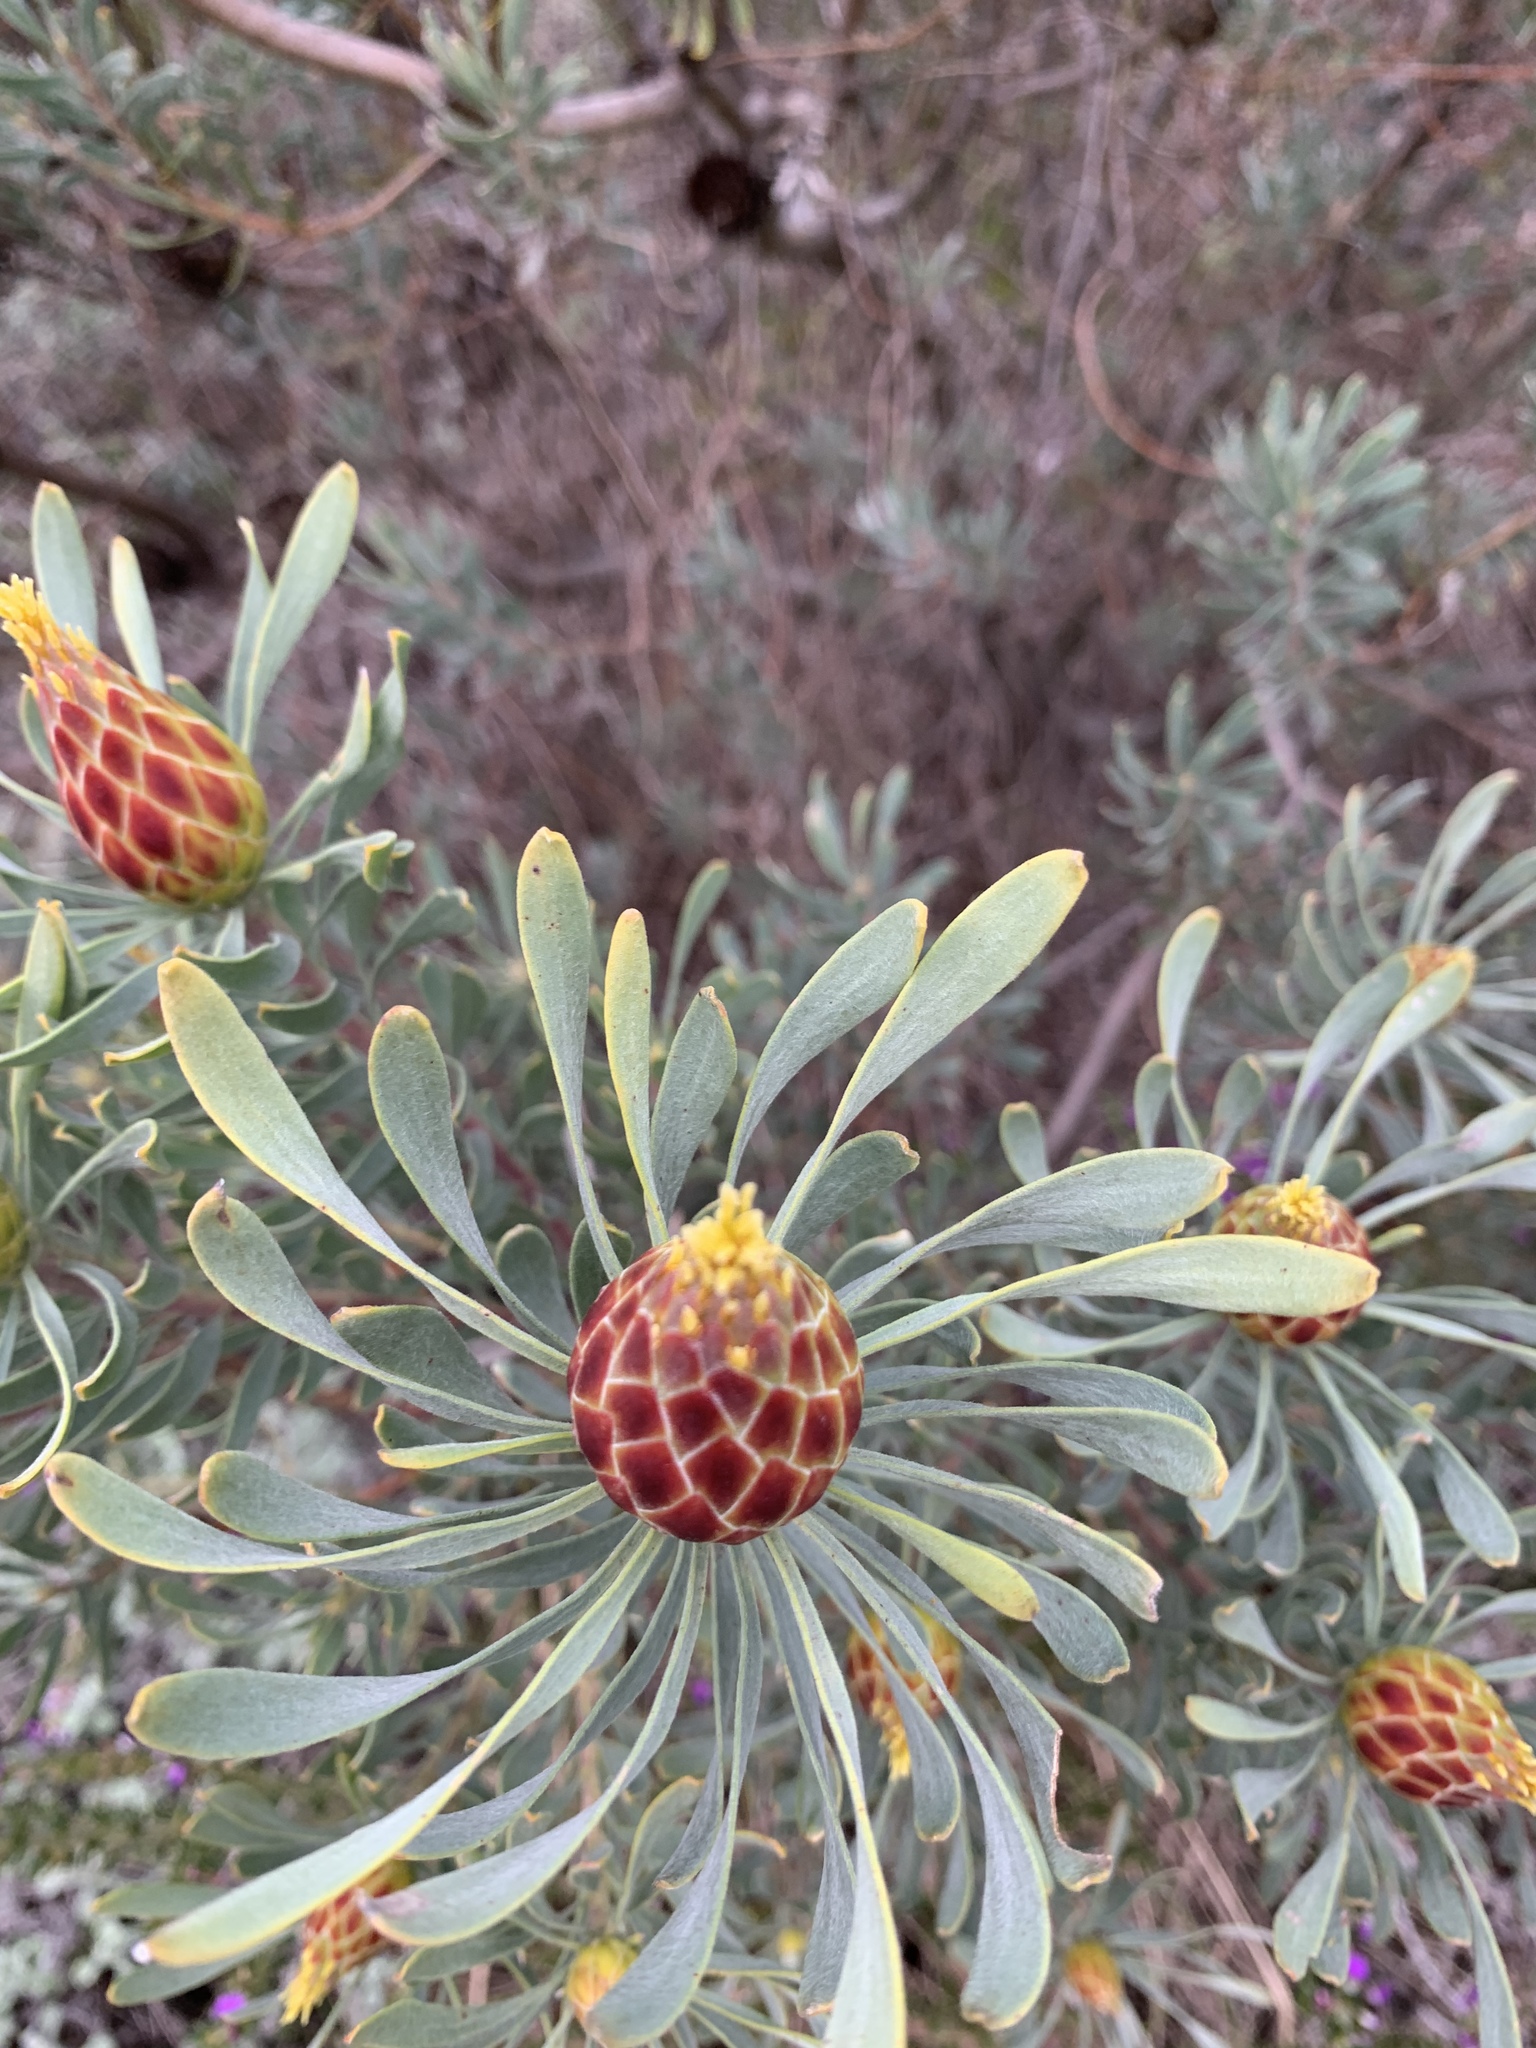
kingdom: Plantae
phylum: Tracheophyta
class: Magnoliopsida
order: Proteales
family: Proteaceae
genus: Leucadendron
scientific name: Leucadendron rubrum
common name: Spinning top
